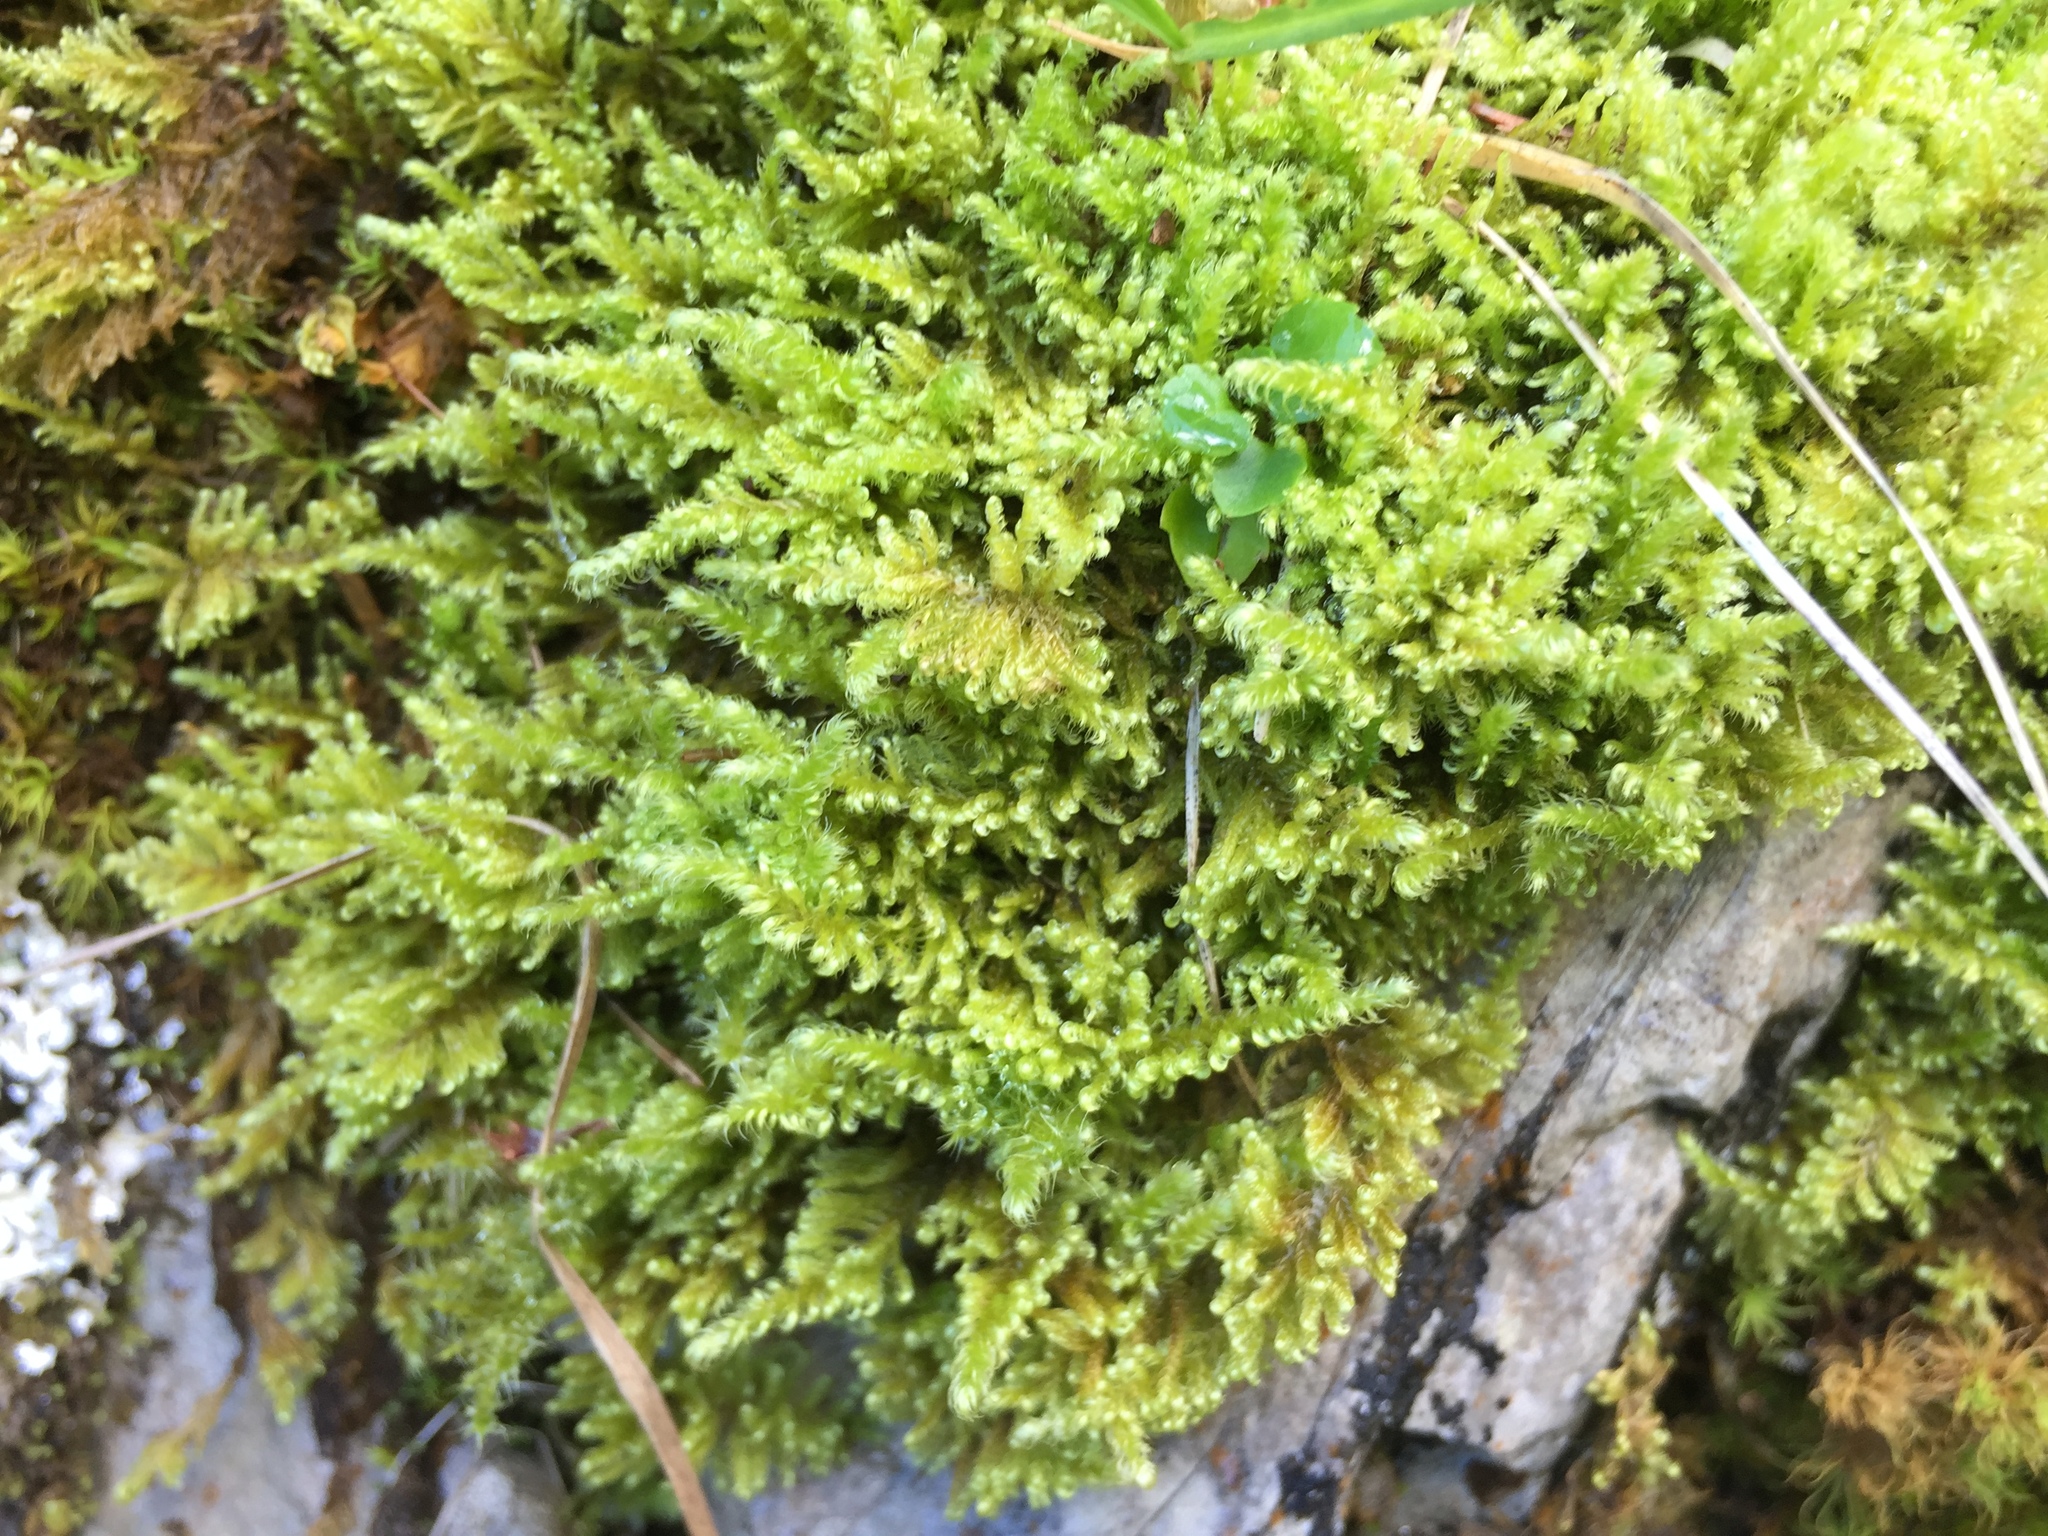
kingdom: Plantae
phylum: Bryophyta
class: Bryopsida
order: Hypnales
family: Myuriaceae
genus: Ctenidium
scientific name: Ctenidium molluscum
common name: Chalk comb-moss
